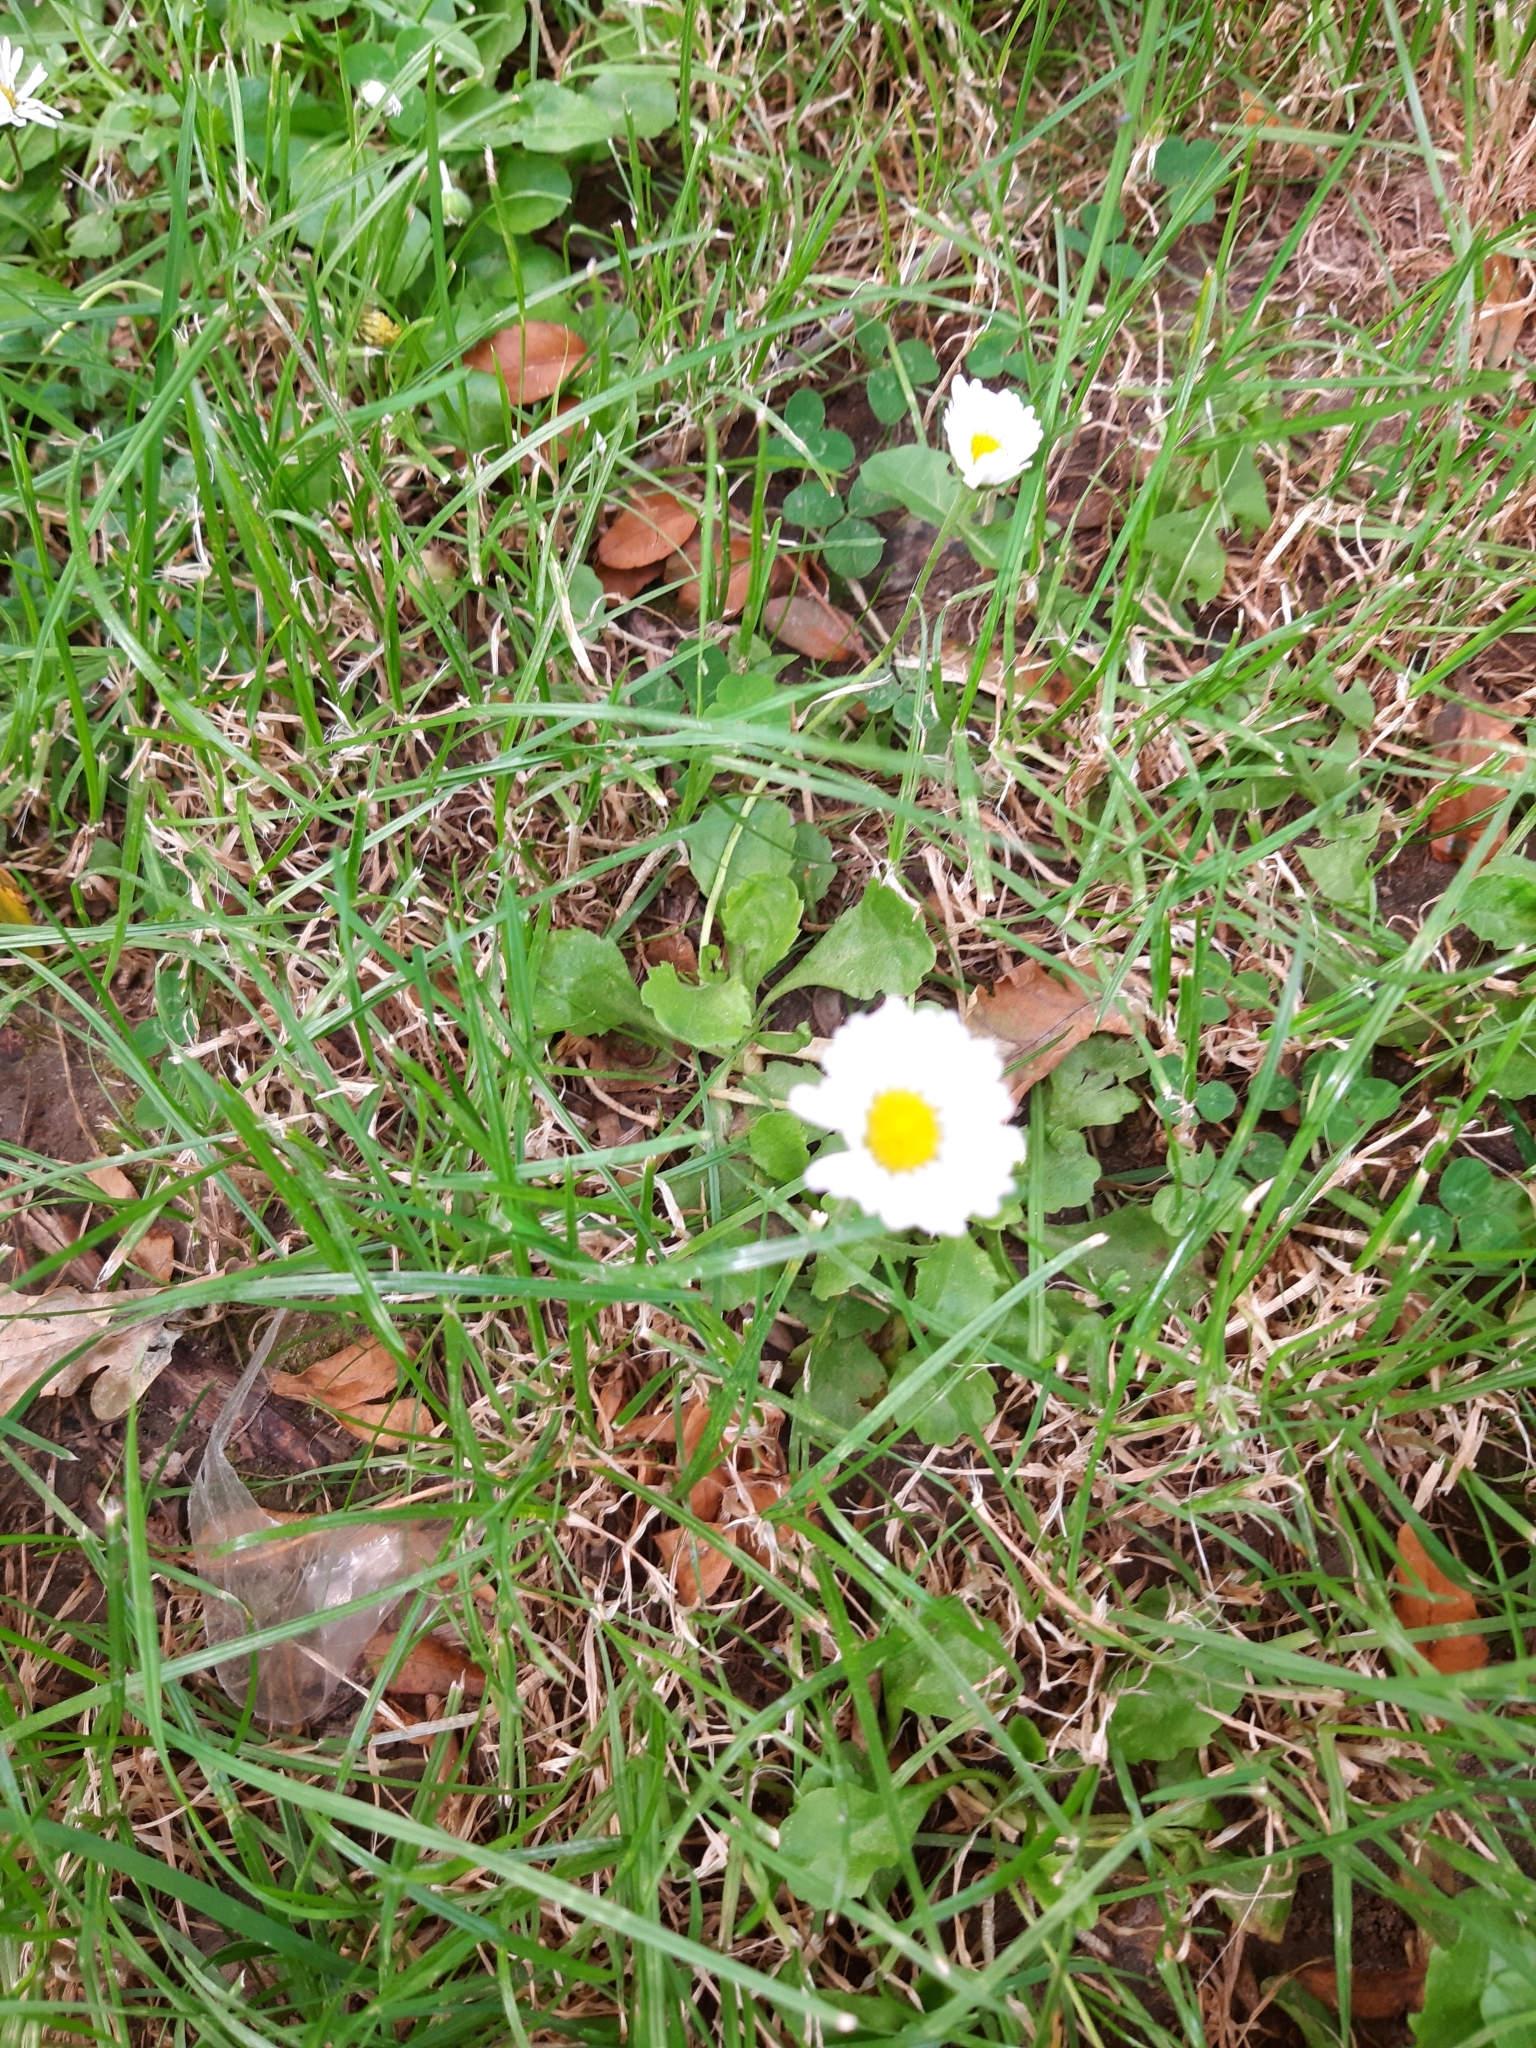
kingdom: Plantae
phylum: Tracheophyta
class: Magnoliopsida
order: Asterales
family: Asteraceae
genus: Bellis
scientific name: Bellis perennis
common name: Lawndaisy
